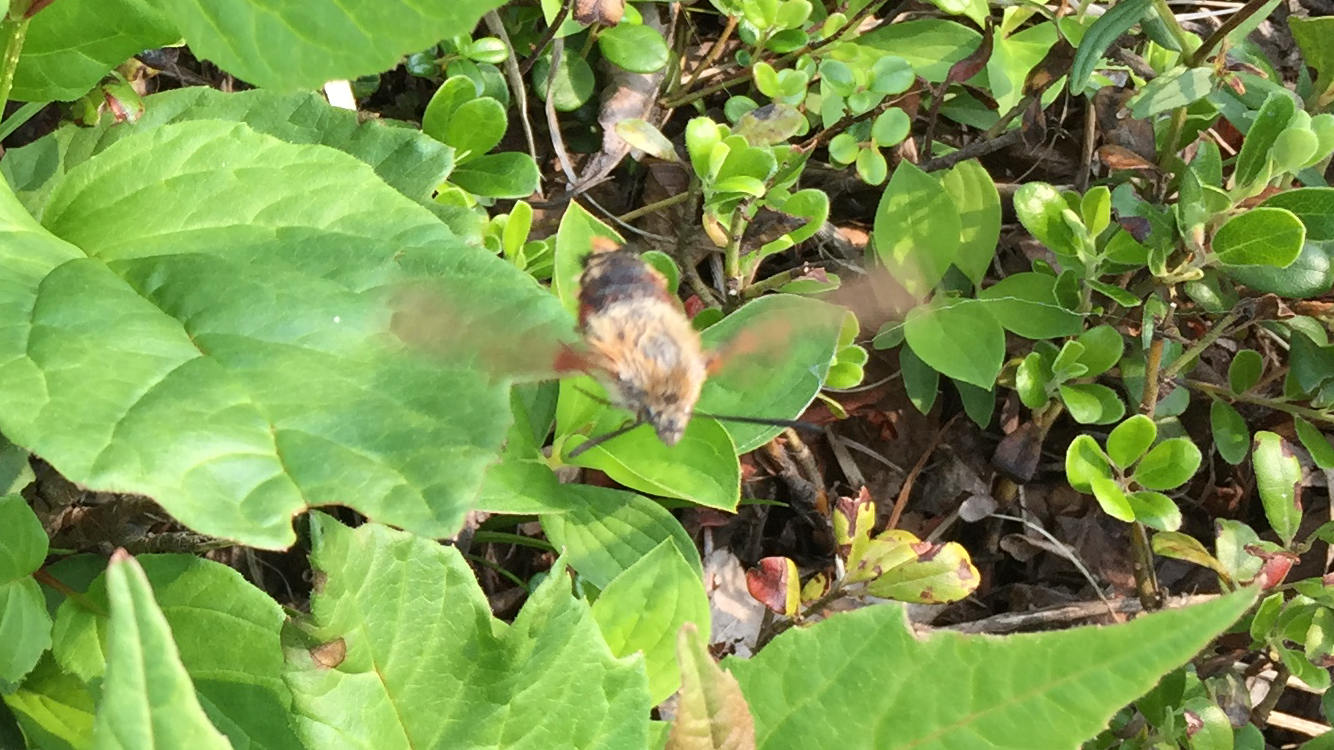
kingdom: Animalia
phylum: Arthropoda
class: Insecta
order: Lepidoptera
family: Sphingidae
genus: Hemaris
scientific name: Hemaris thysbe
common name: Common clear-wing
